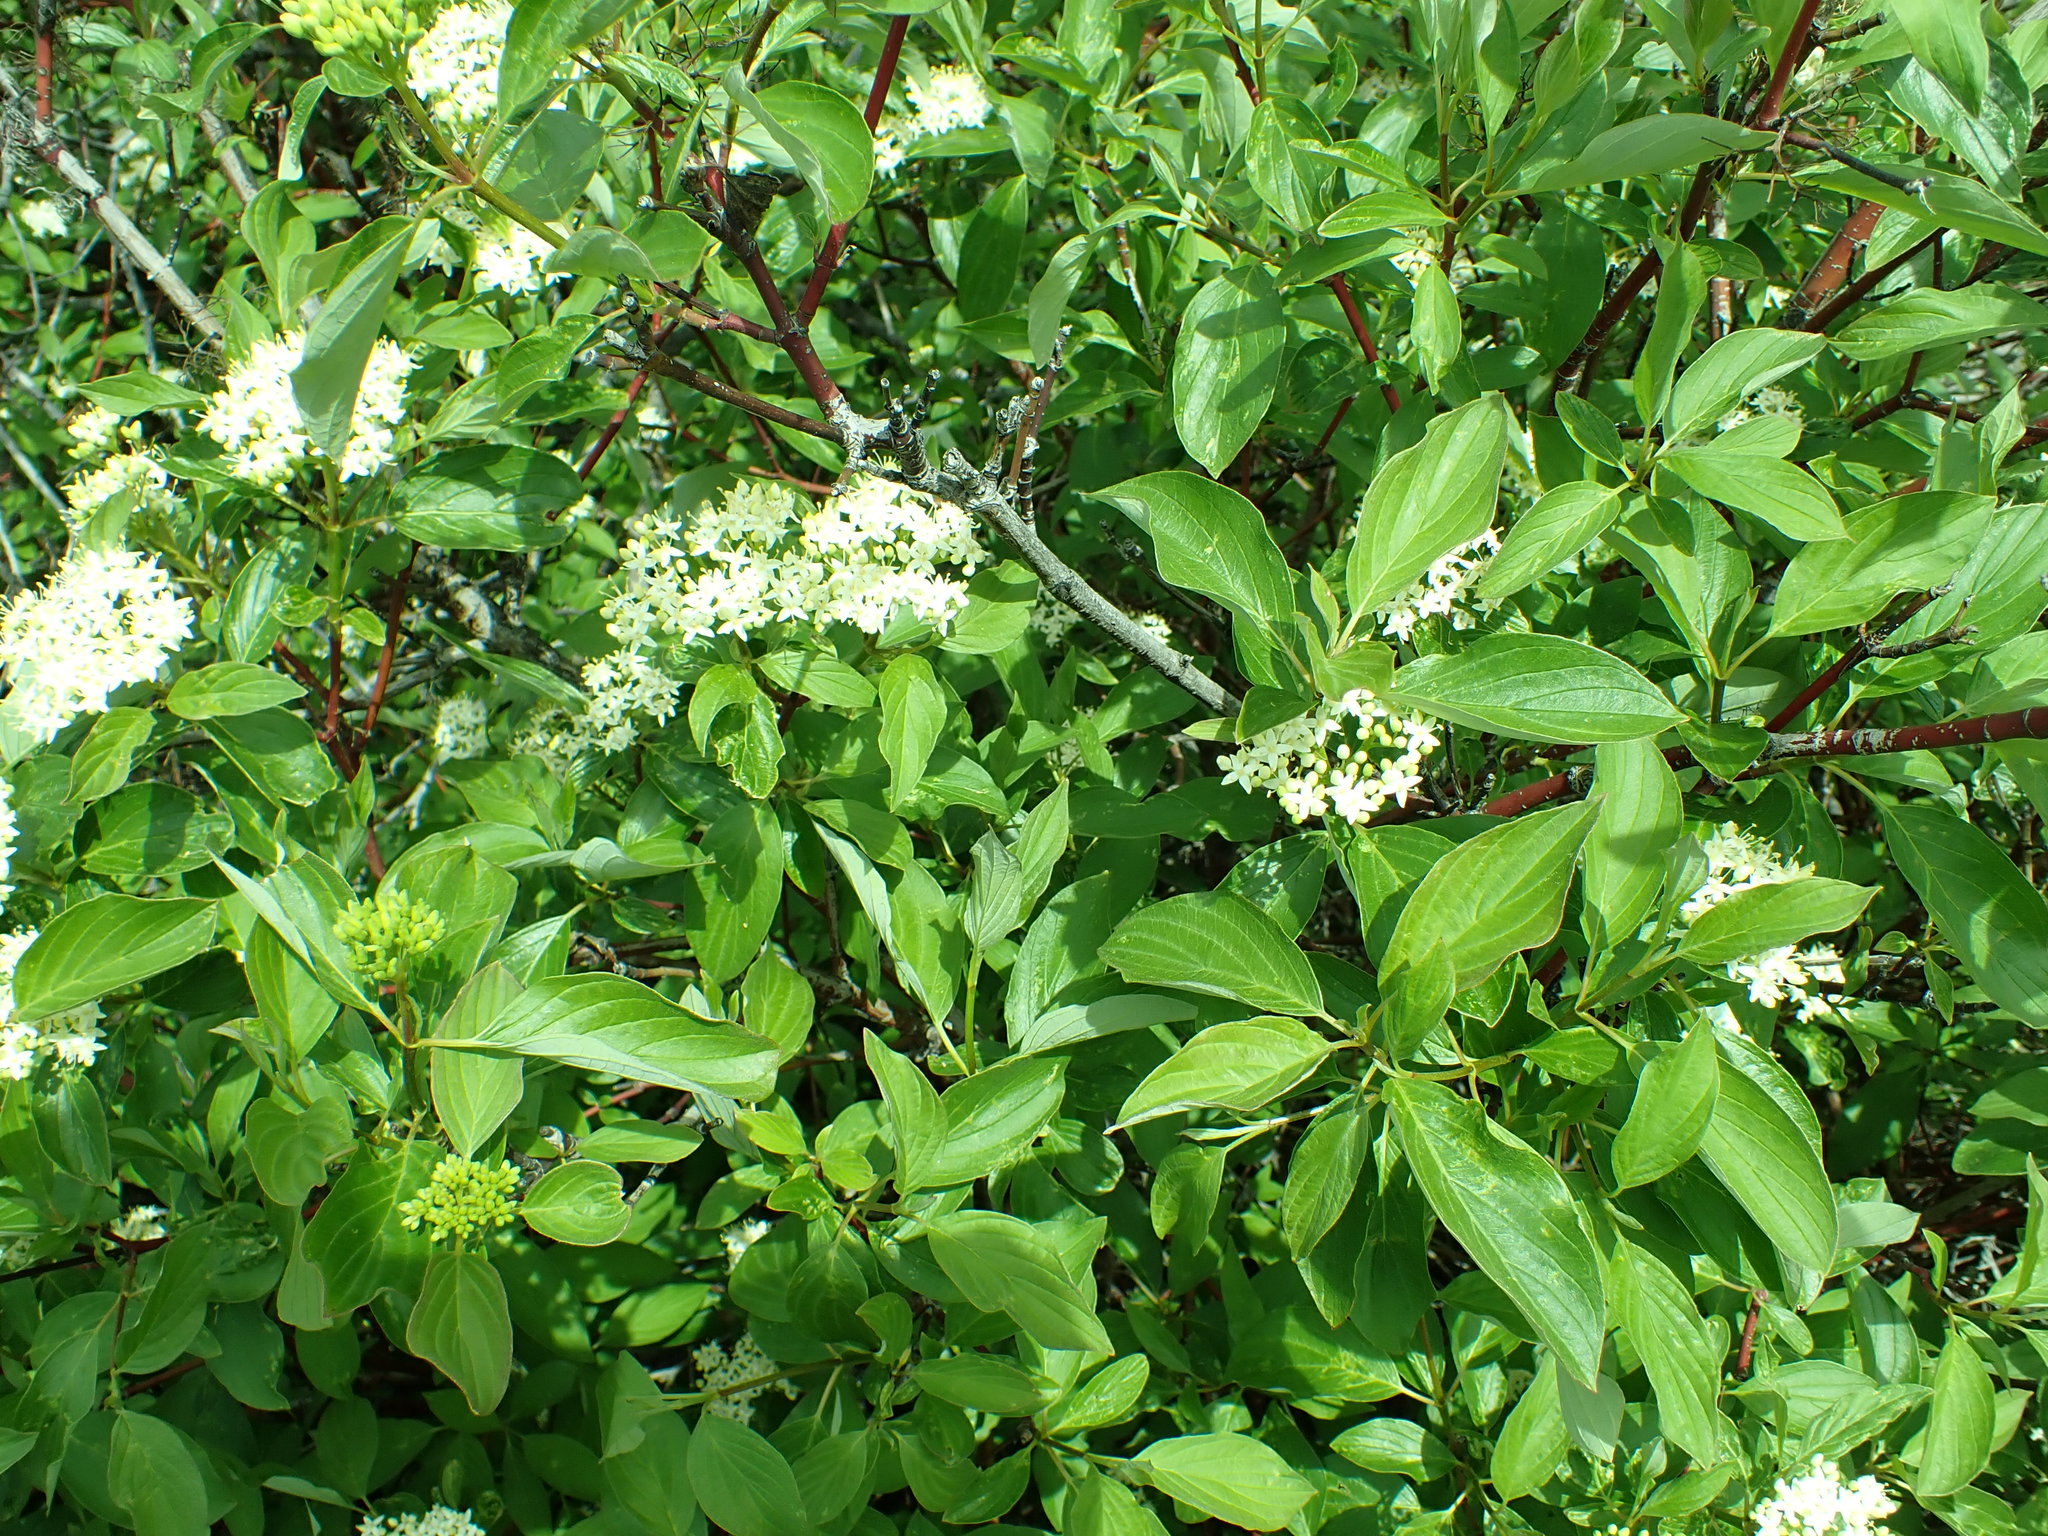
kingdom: Plantae
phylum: Tracheophyta
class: Magnoliopsida
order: Cornales
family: Cornaceae
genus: Cornus
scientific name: Cornus sericea
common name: Red-osier dogwood
